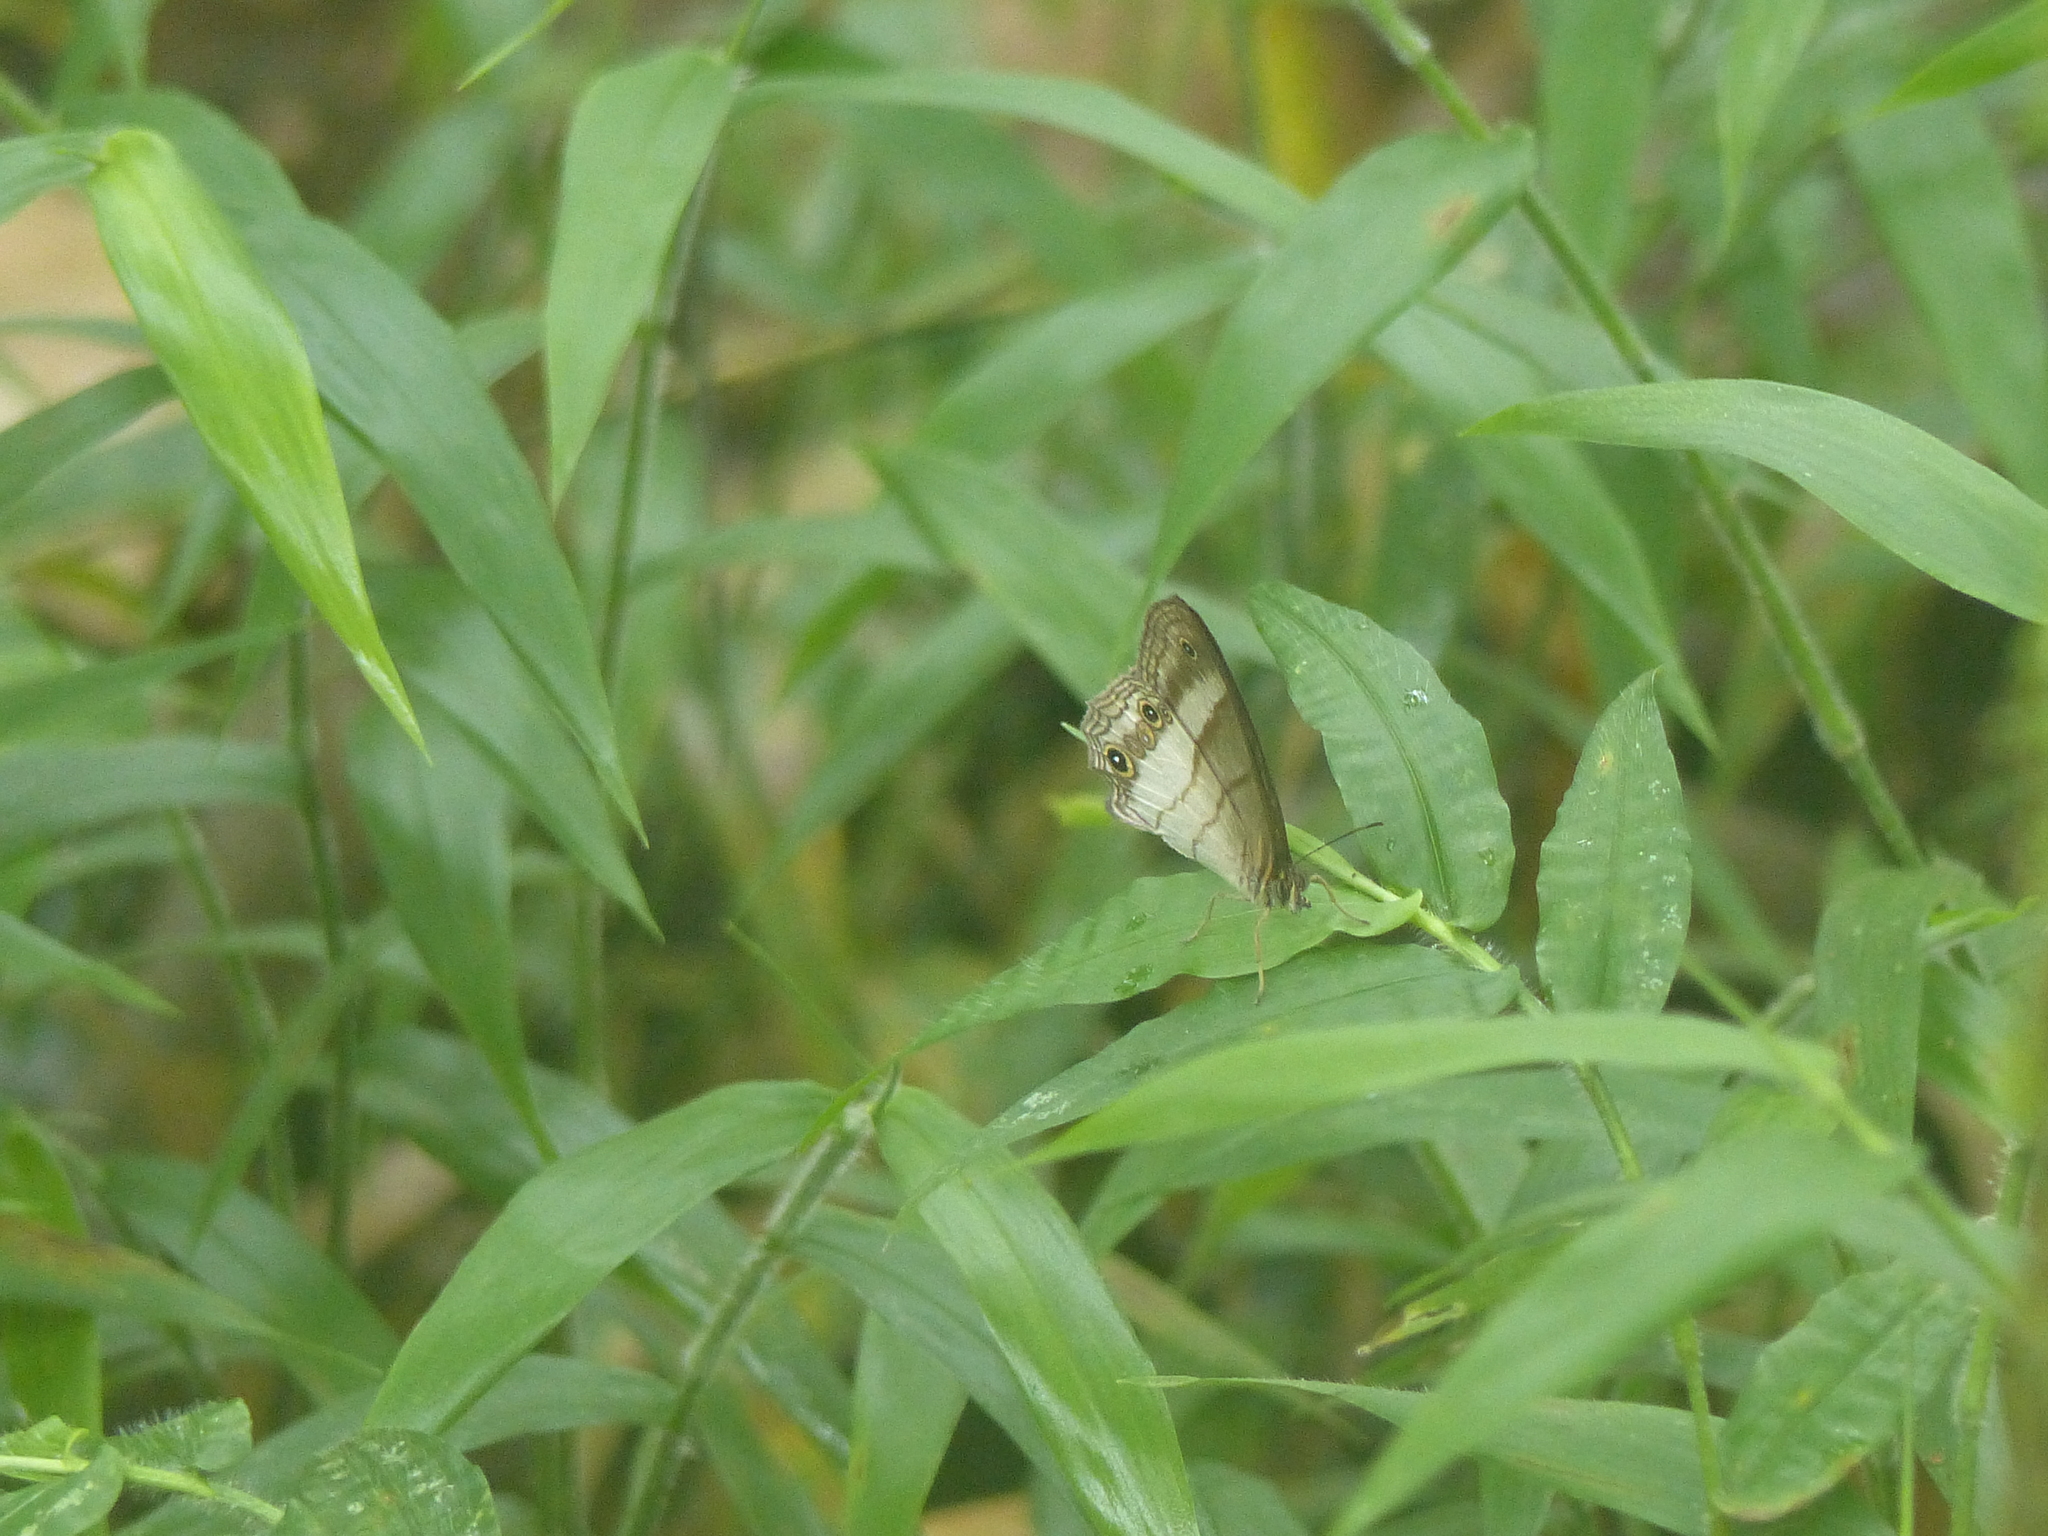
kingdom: Animalia
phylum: Arthropoda
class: Insecta
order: Lepidoptera
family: Nymphalidae
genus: Euptychoides
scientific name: Euptychoides saturnus
